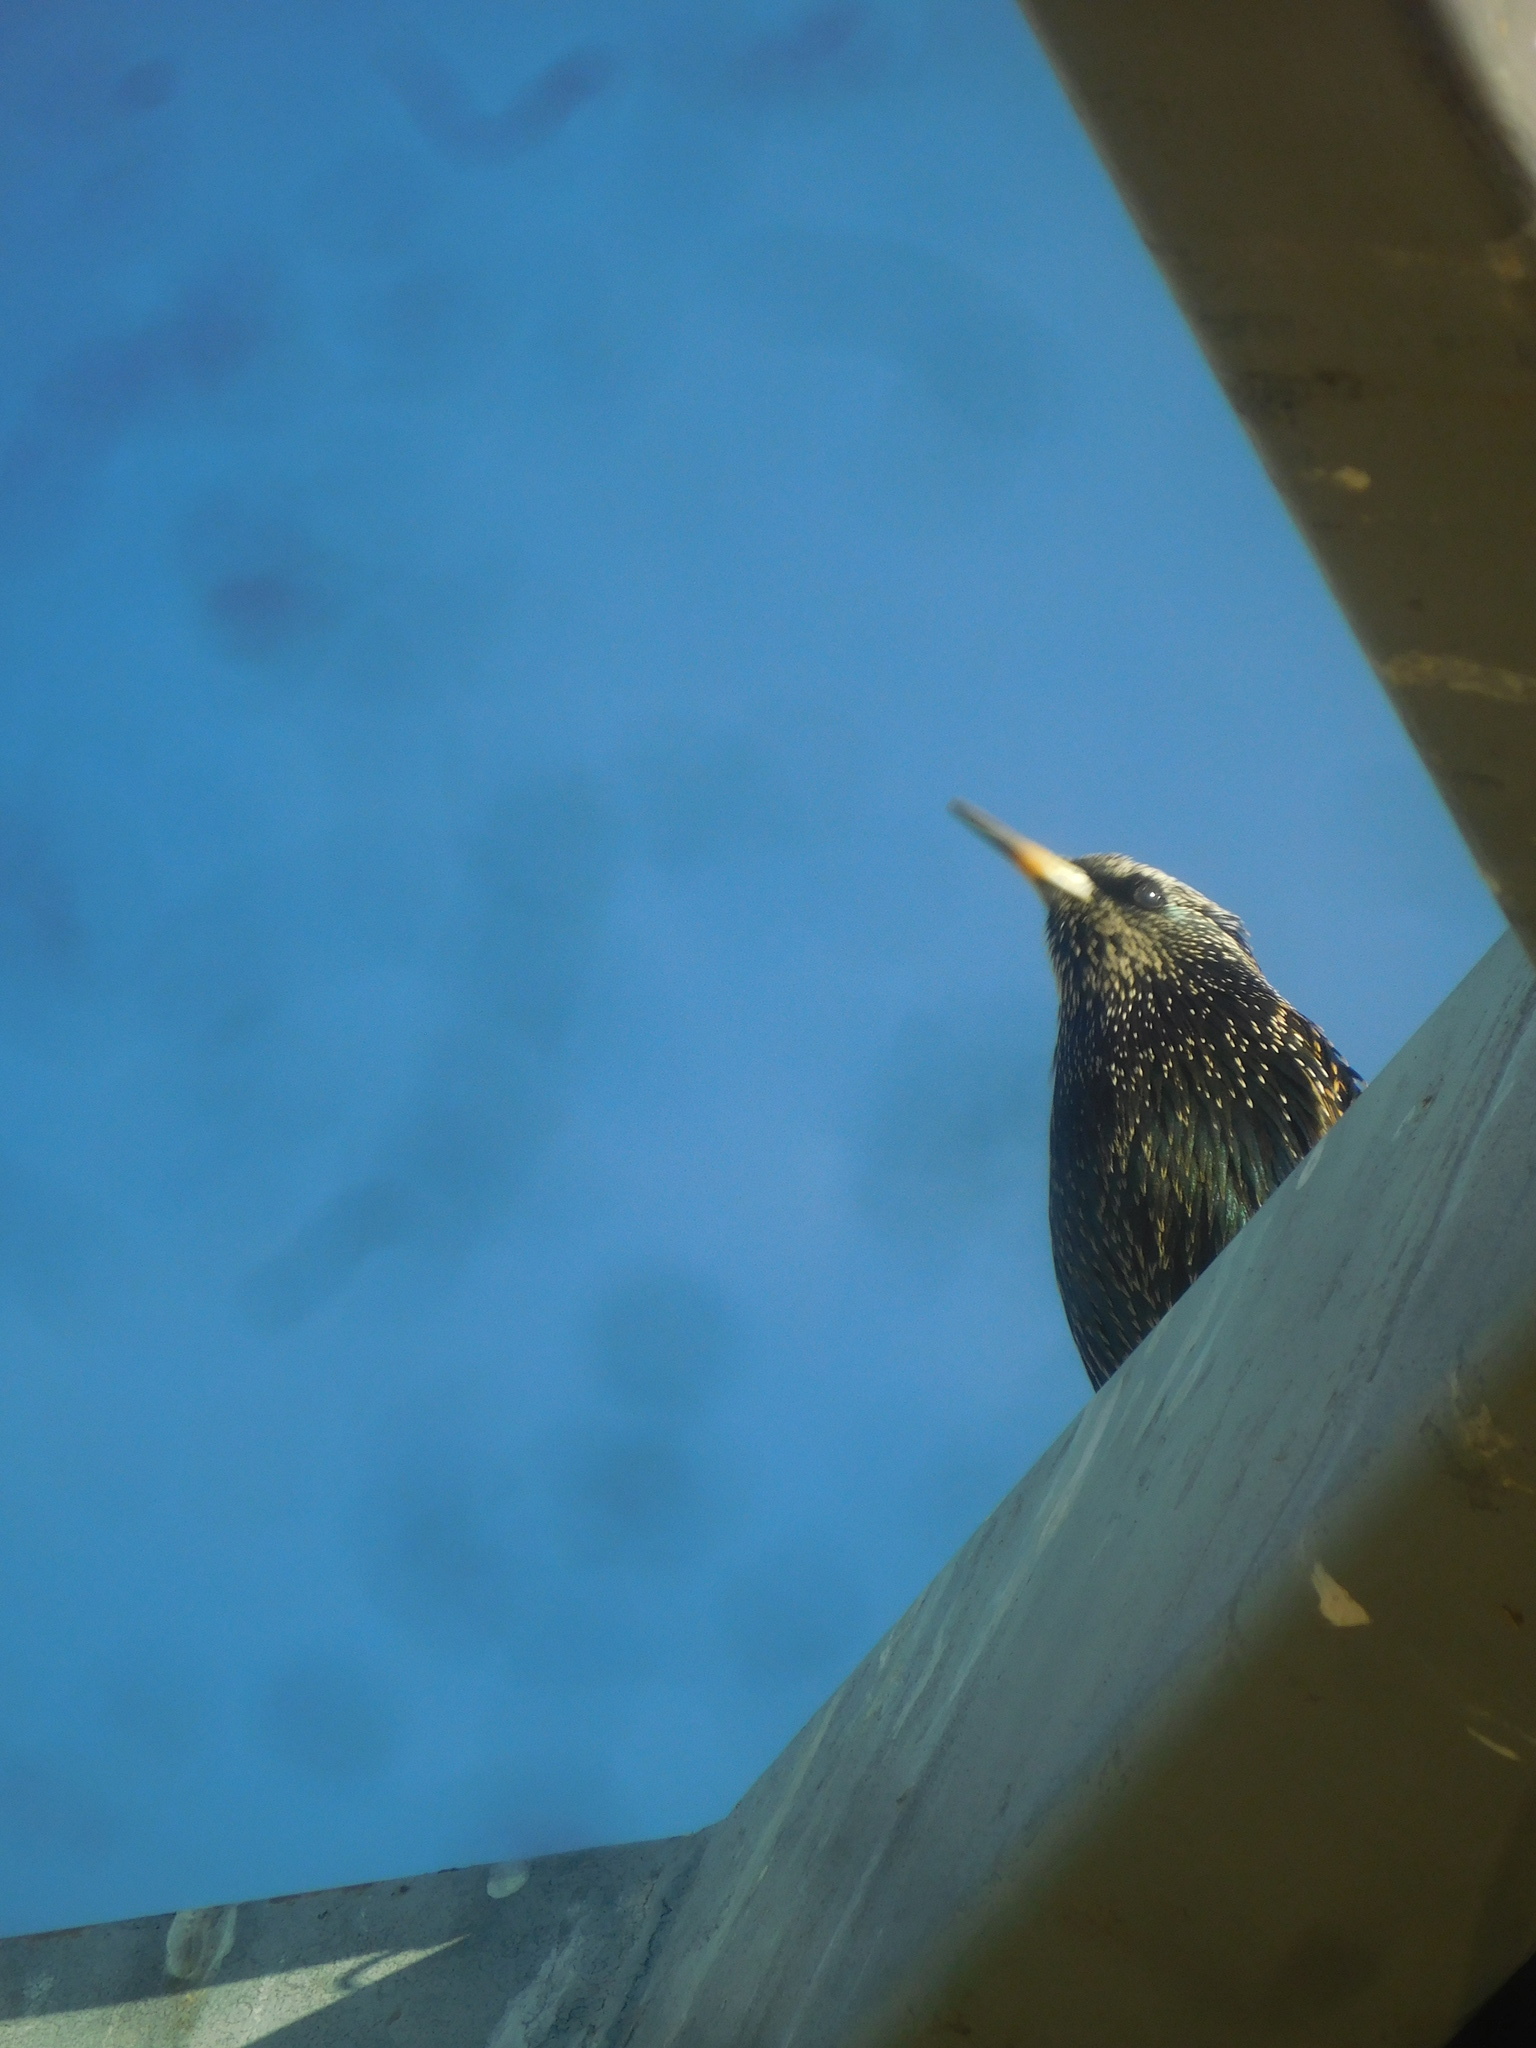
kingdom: Animalia
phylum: Chordata
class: Aves
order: Passeriformes
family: Sturnidae
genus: Sturnus
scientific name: Sturnus vulgaris
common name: Common starling
